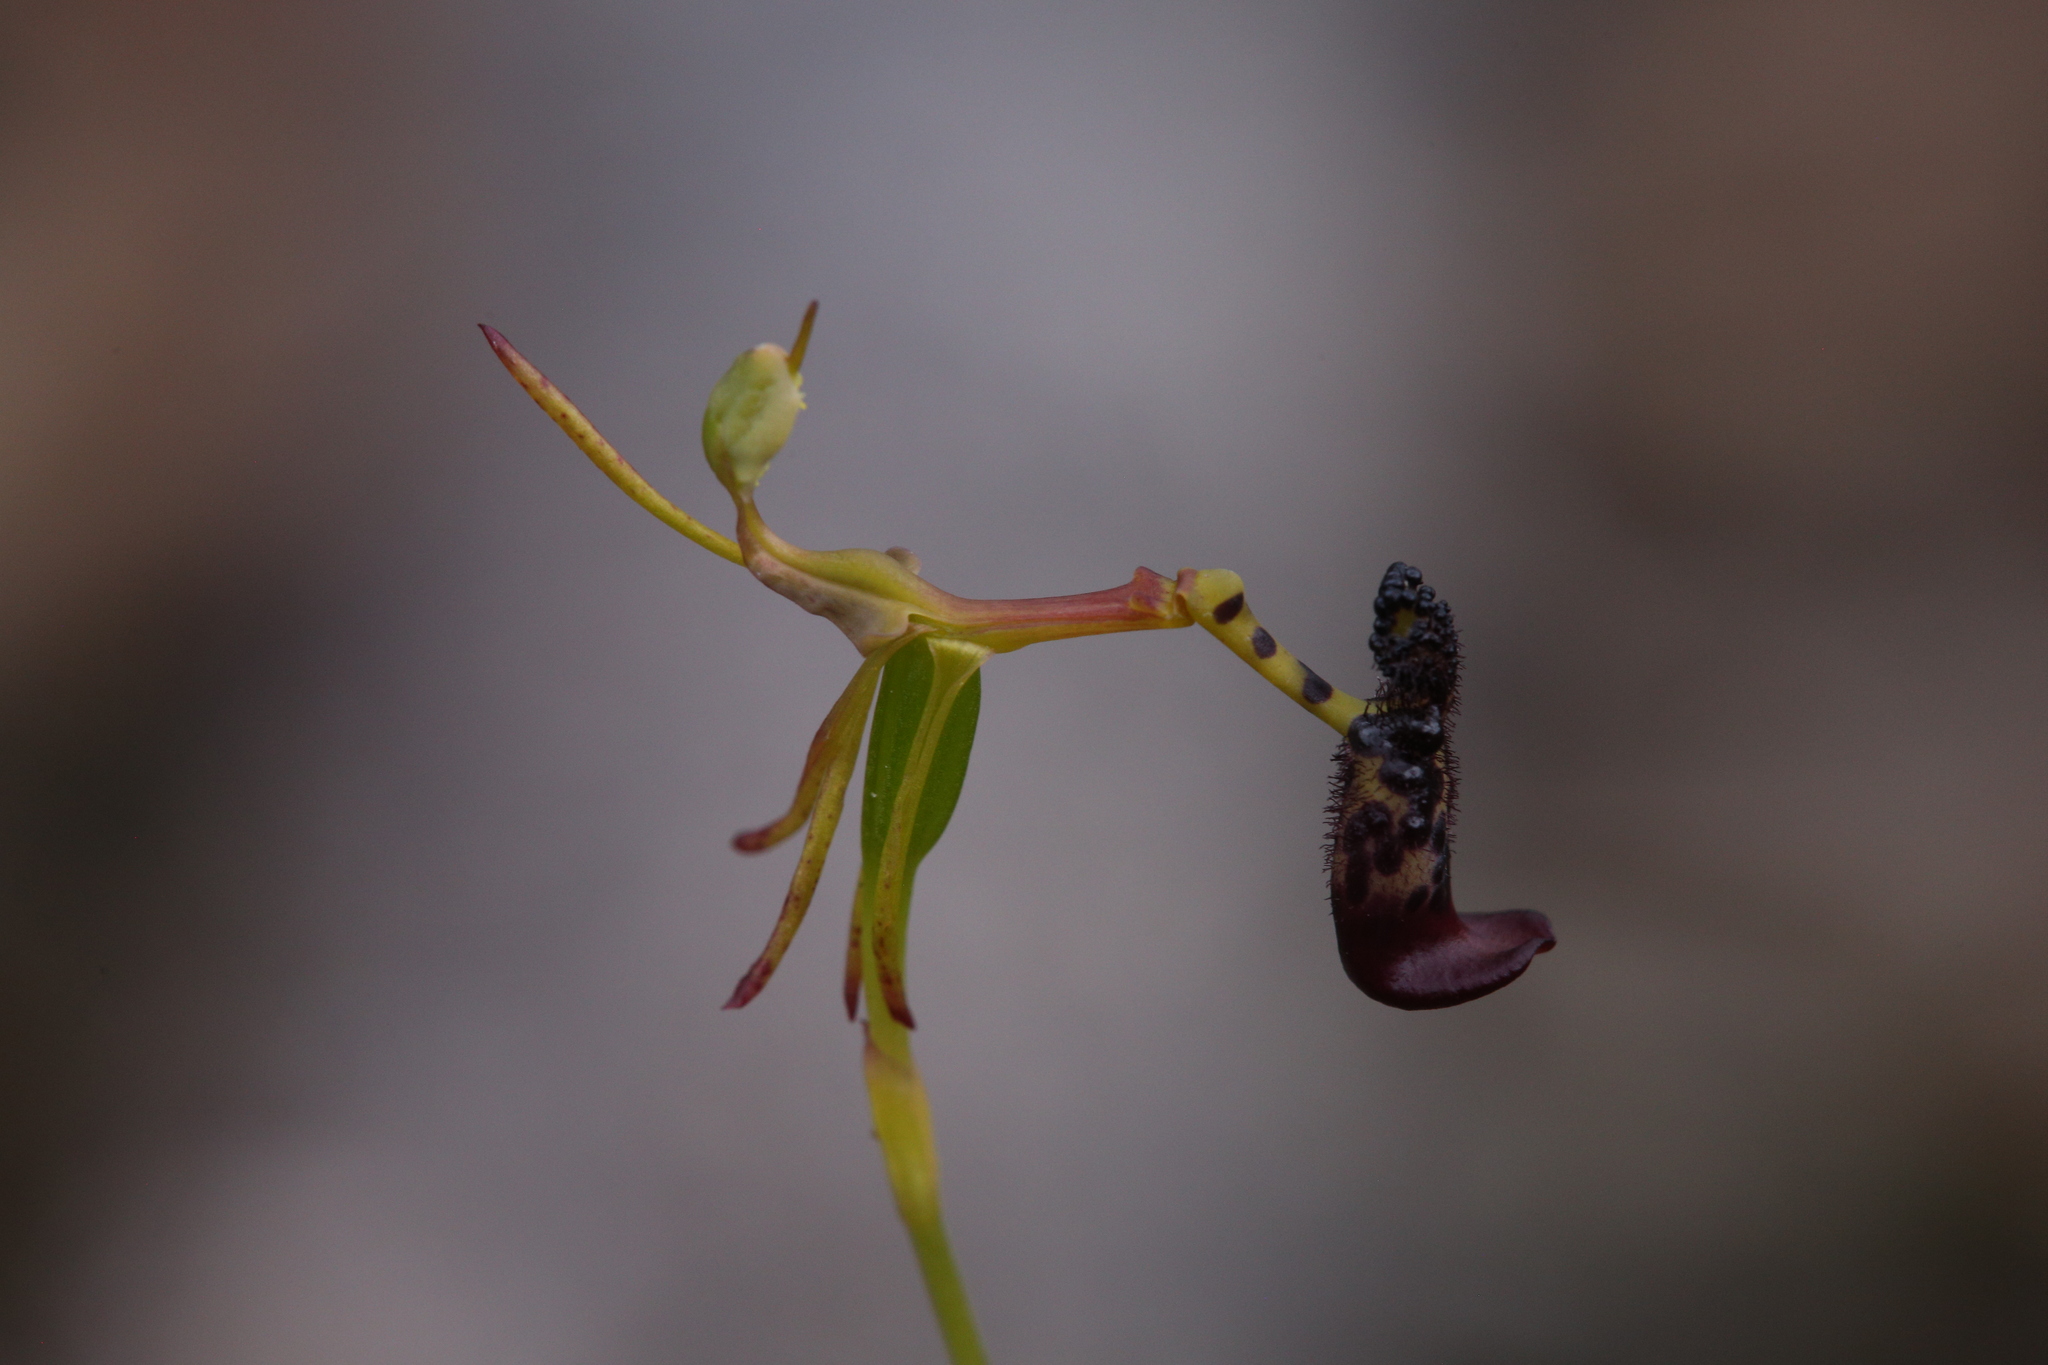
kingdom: Plantae
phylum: Tracheophyta
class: Liliopsida
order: Asparagales
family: Orchidaceae
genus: Drakaea
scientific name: Drakaea livida
